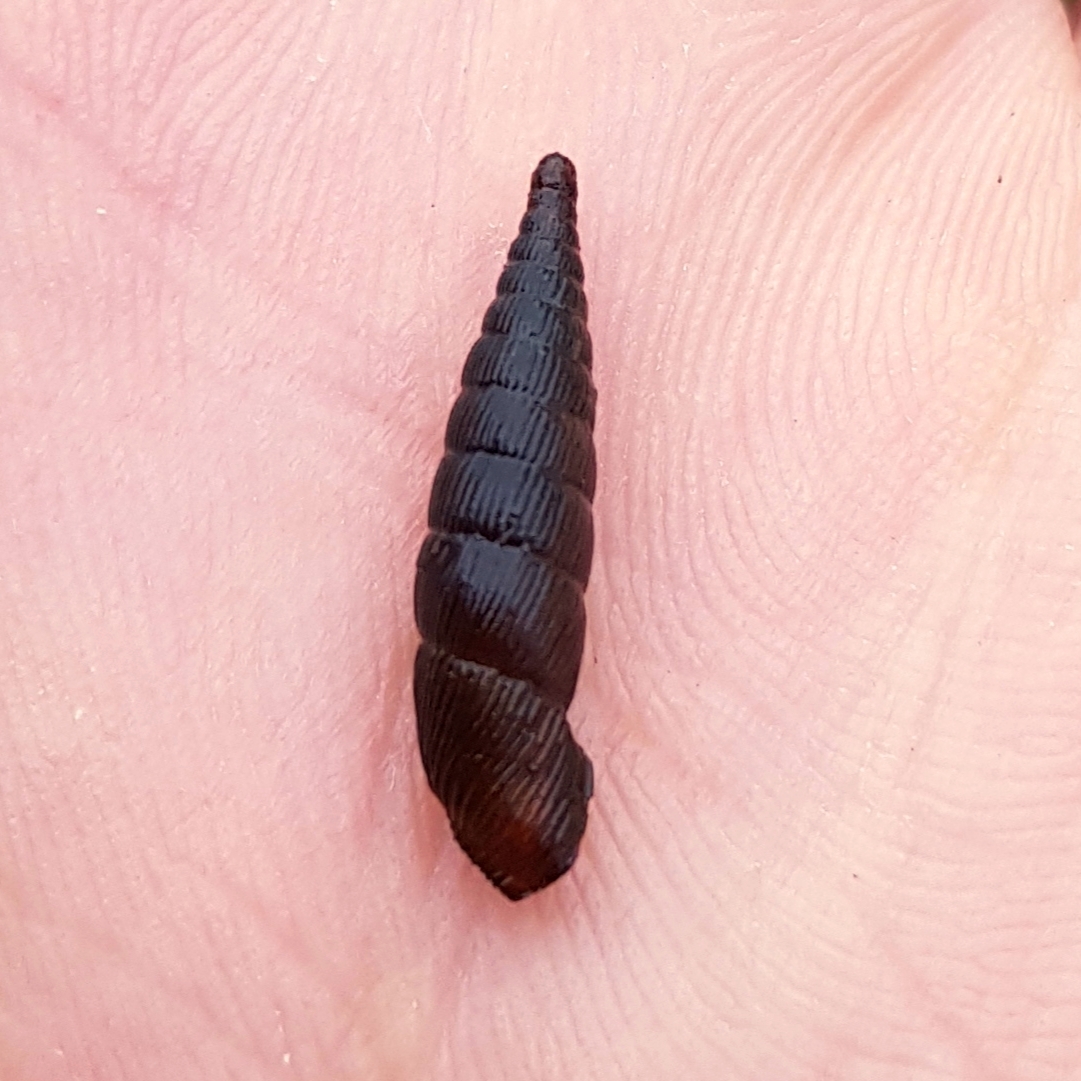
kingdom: Animalia
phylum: Mollusca
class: Gastropoda
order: Stylommatophora
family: Clausiliidae
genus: Alinda
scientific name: Alinda biplicata
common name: Thames door snail
